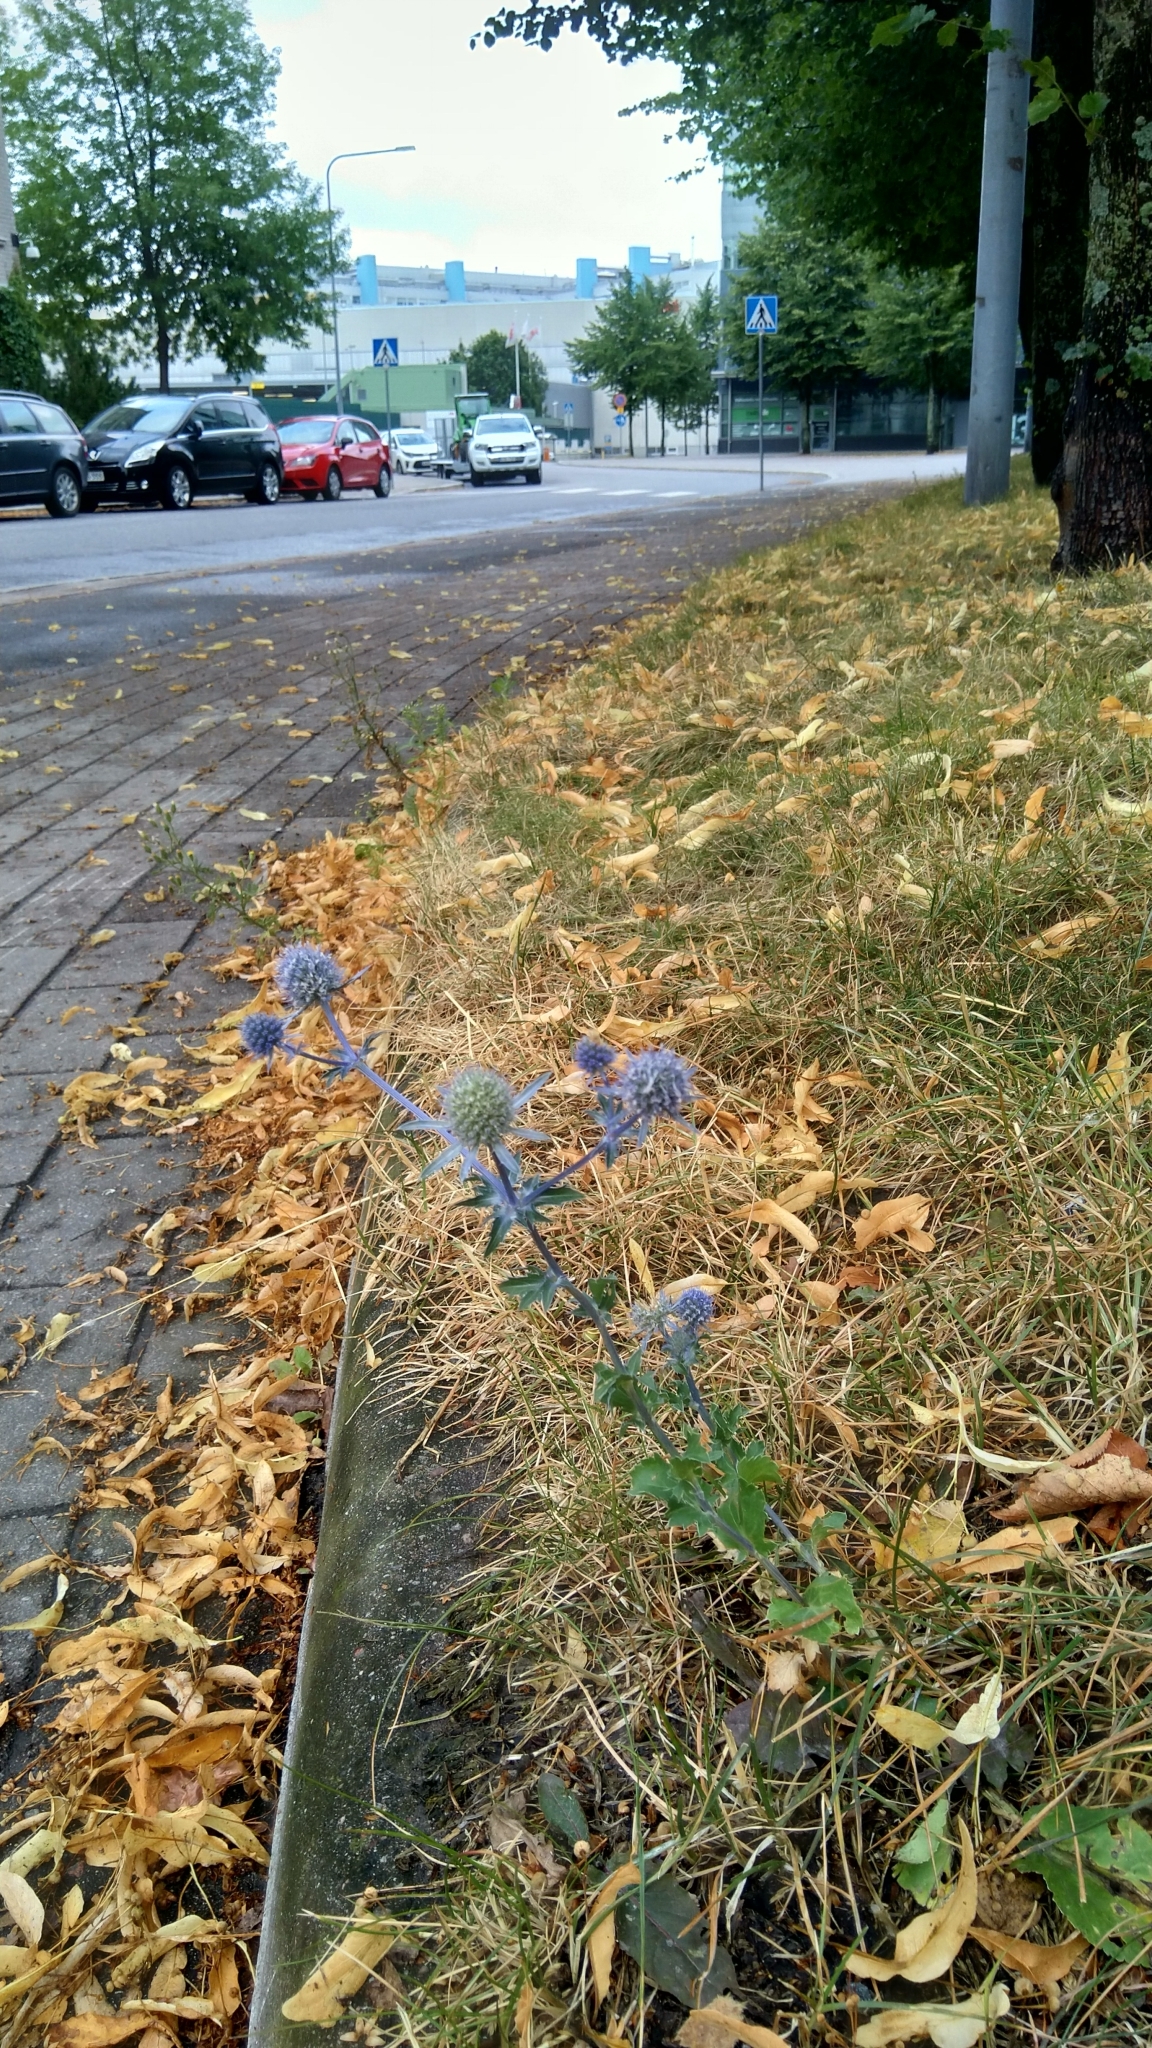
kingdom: Plantae
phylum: Tracheophyta
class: Magnoliopsida
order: Apiales
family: Apiaceae
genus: Eryngium
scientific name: Eryngium planum
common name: Blue eryngo
